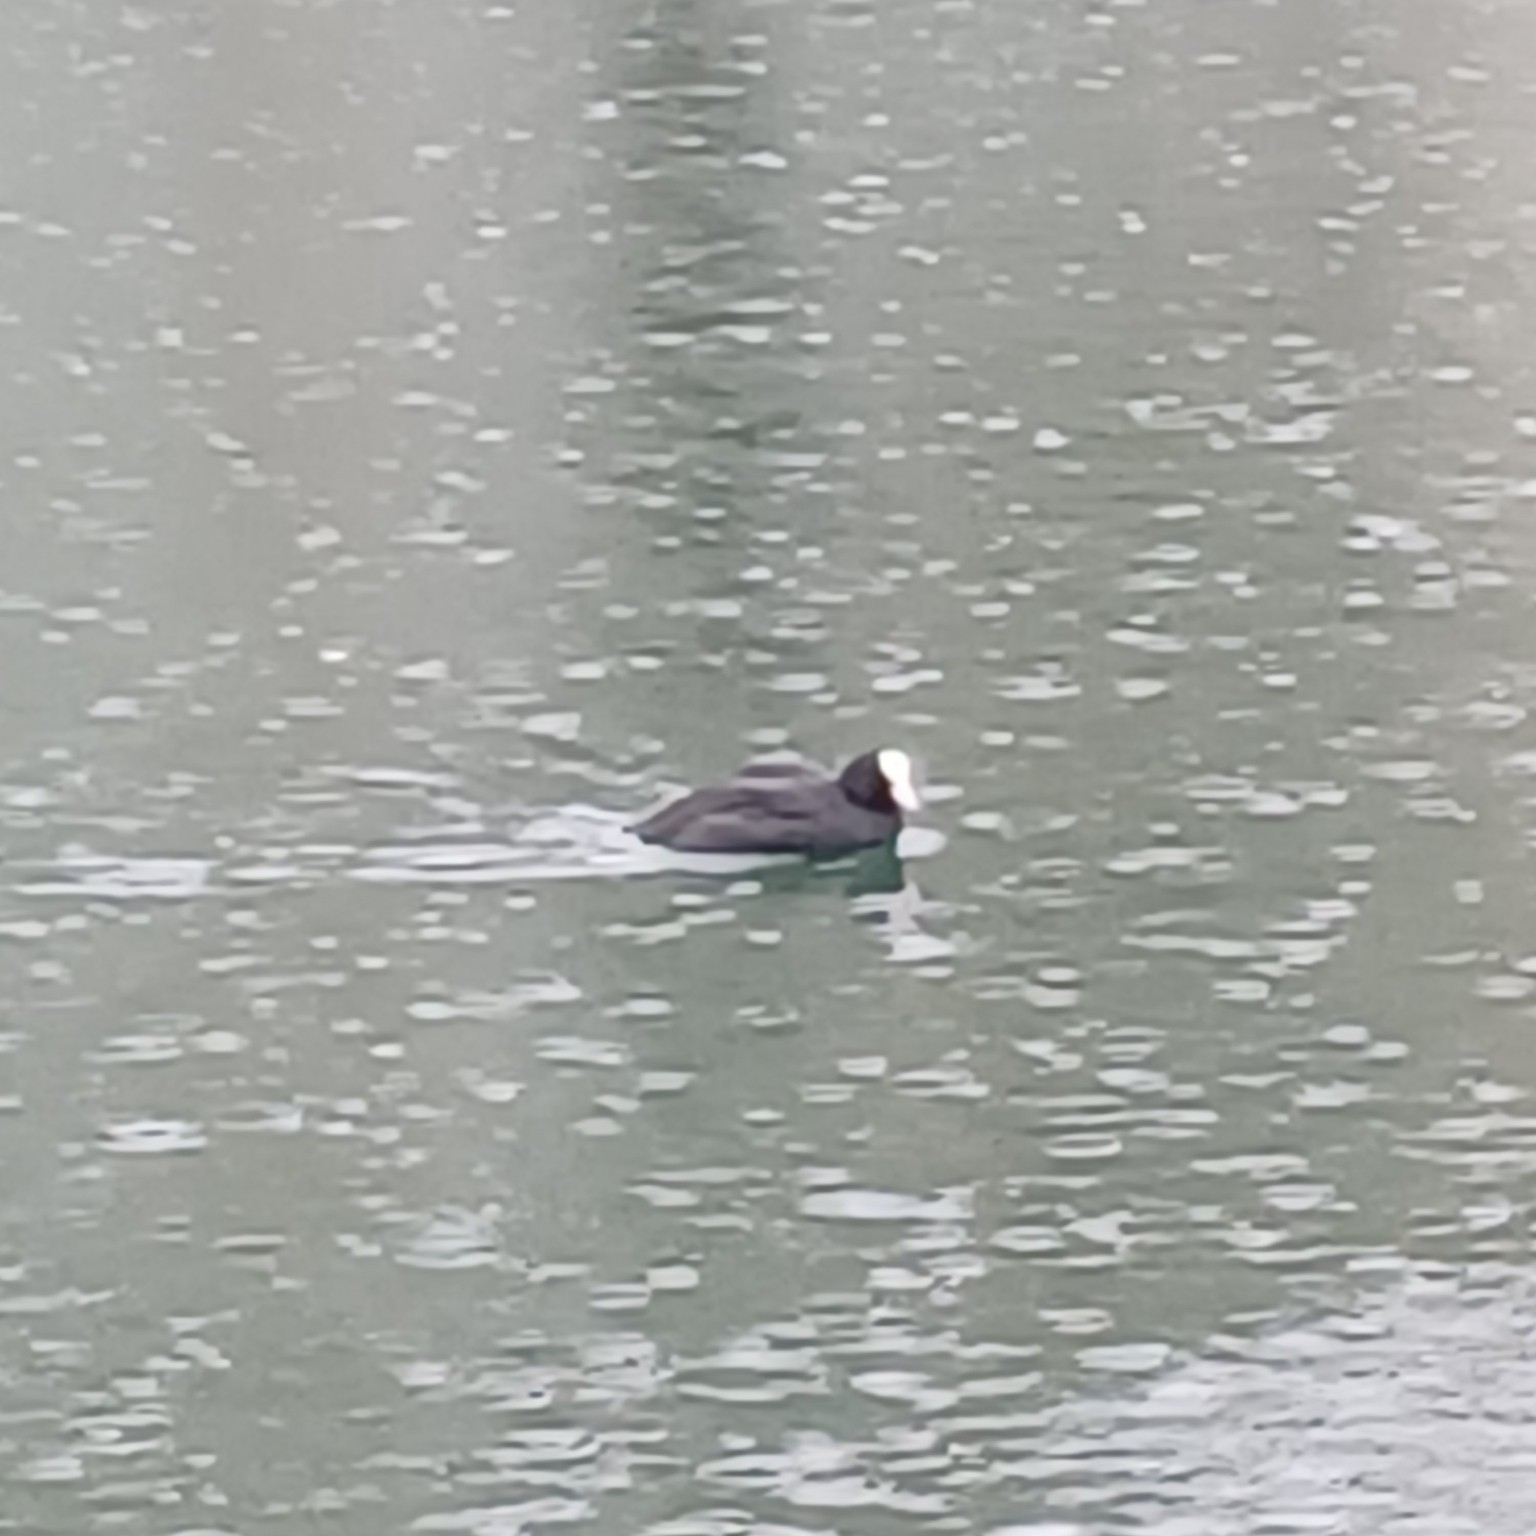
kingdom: Animalia
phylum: Chordata
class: Aves
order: Gruiformes
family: Rallidae
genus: Fulica
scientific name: Fulica atra
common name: Eurasian coot
